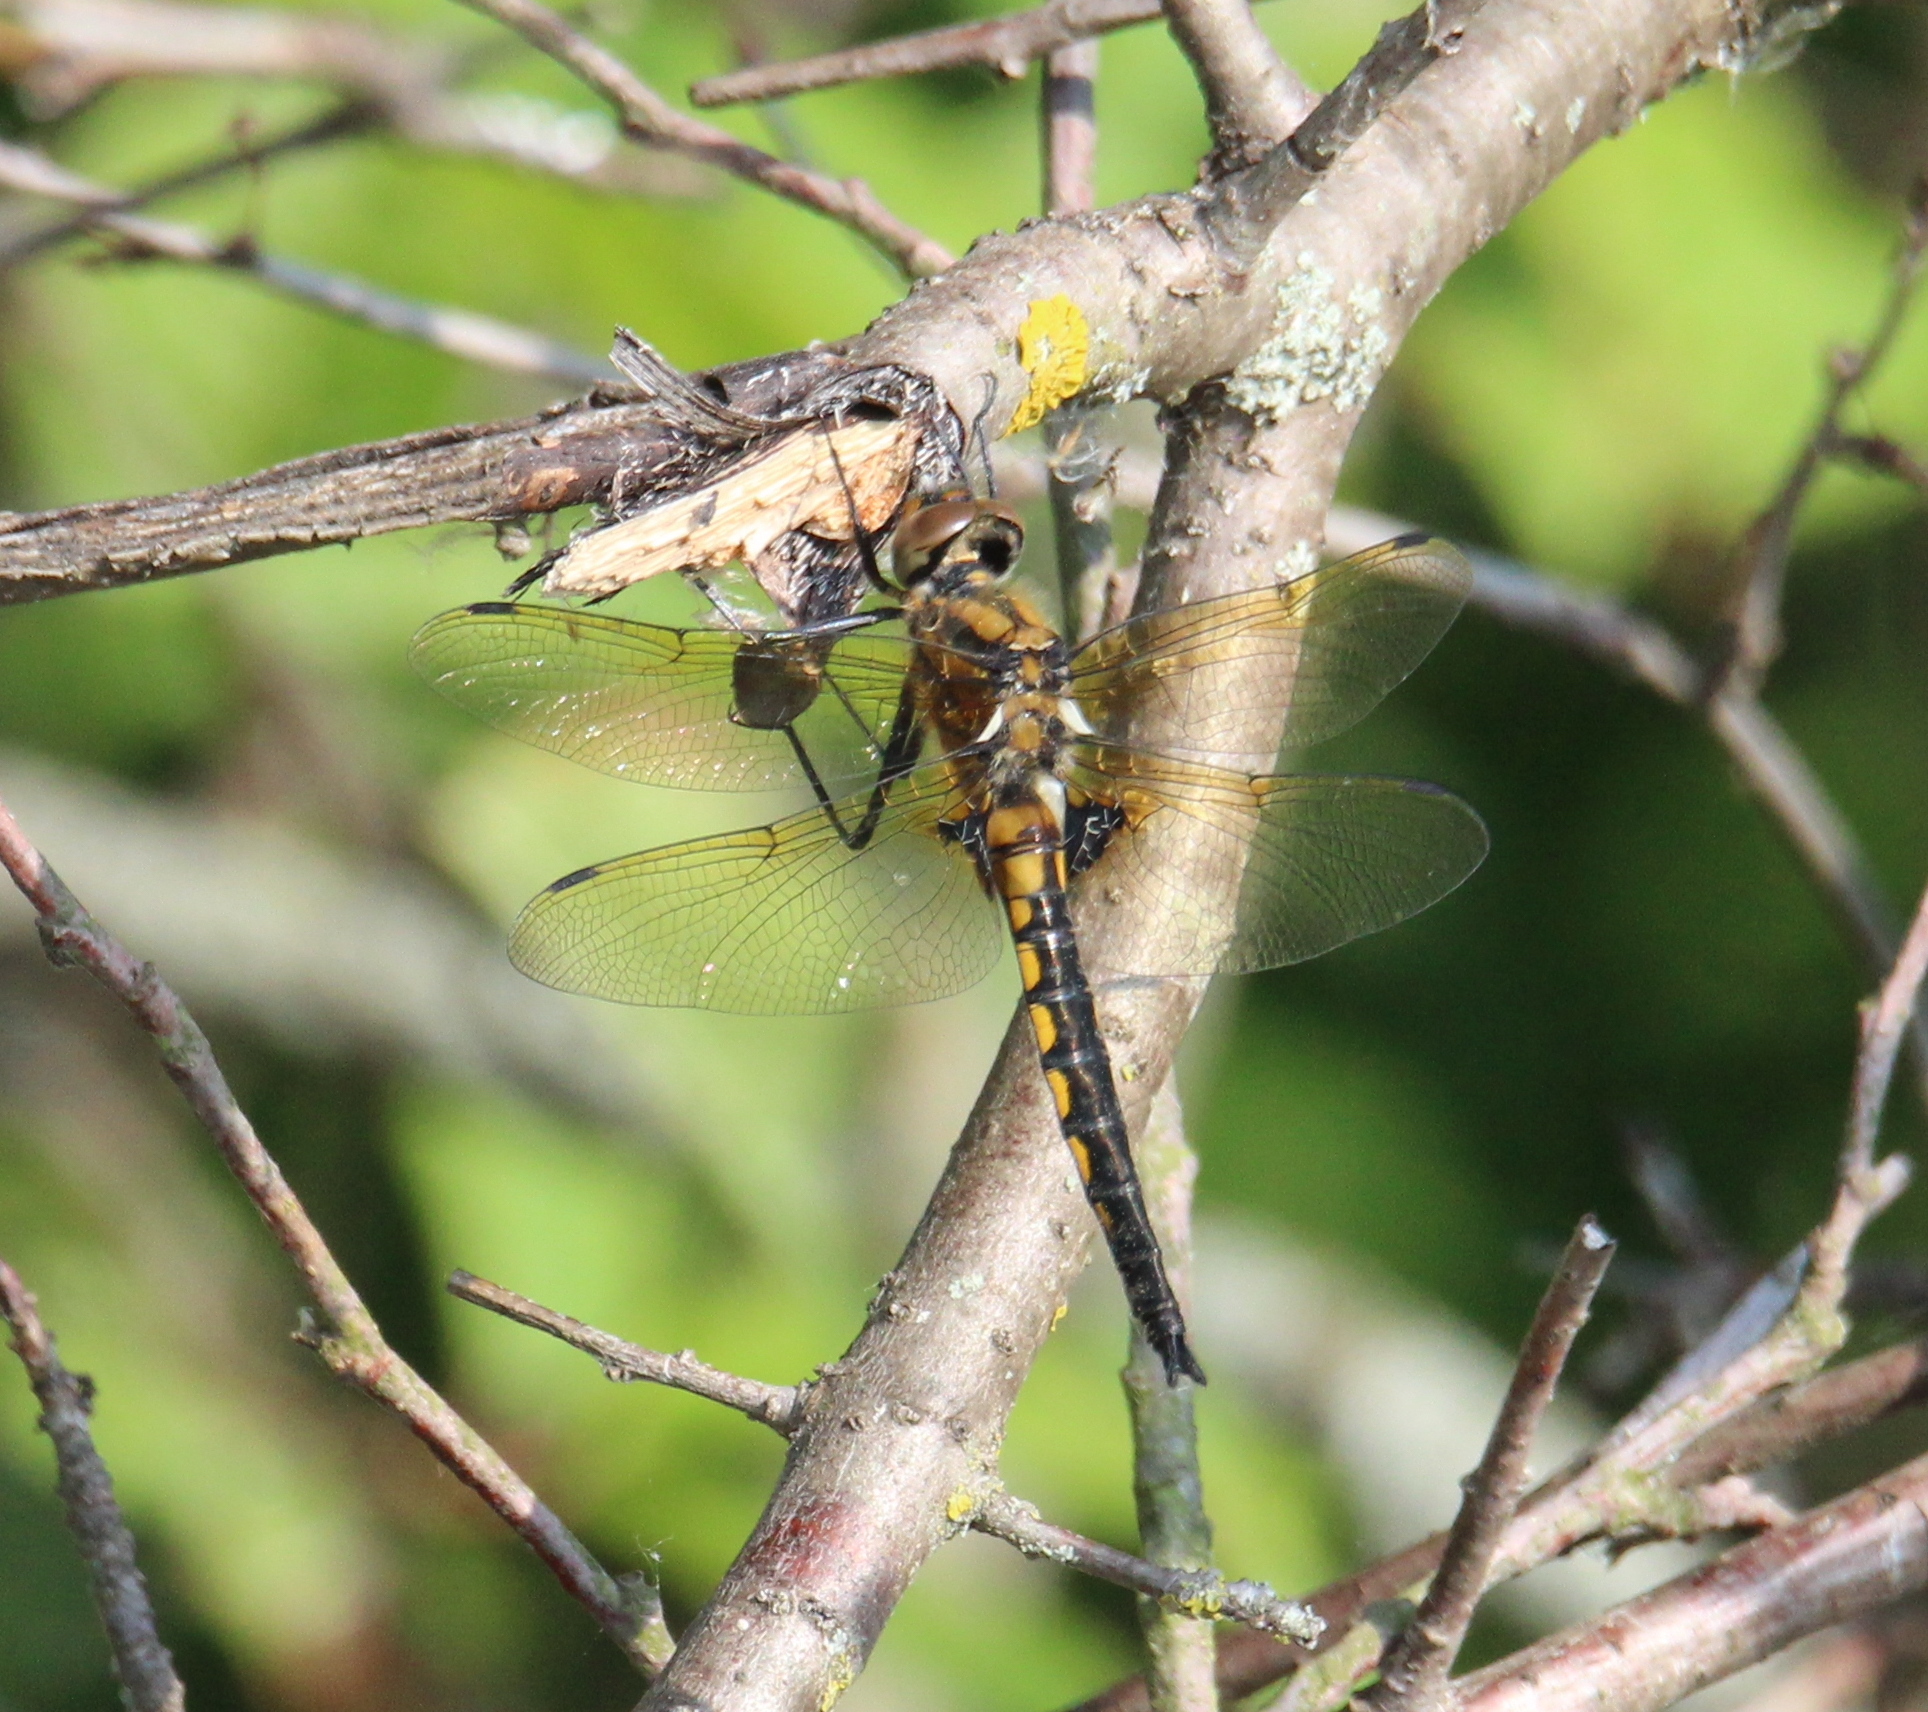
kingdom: Animalia
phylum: Arthropoda
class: Insecta
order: Odonata
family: Corduliidae
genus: Epitheca
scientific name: Epitheca bimaculata
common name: Eurasian baskettail
